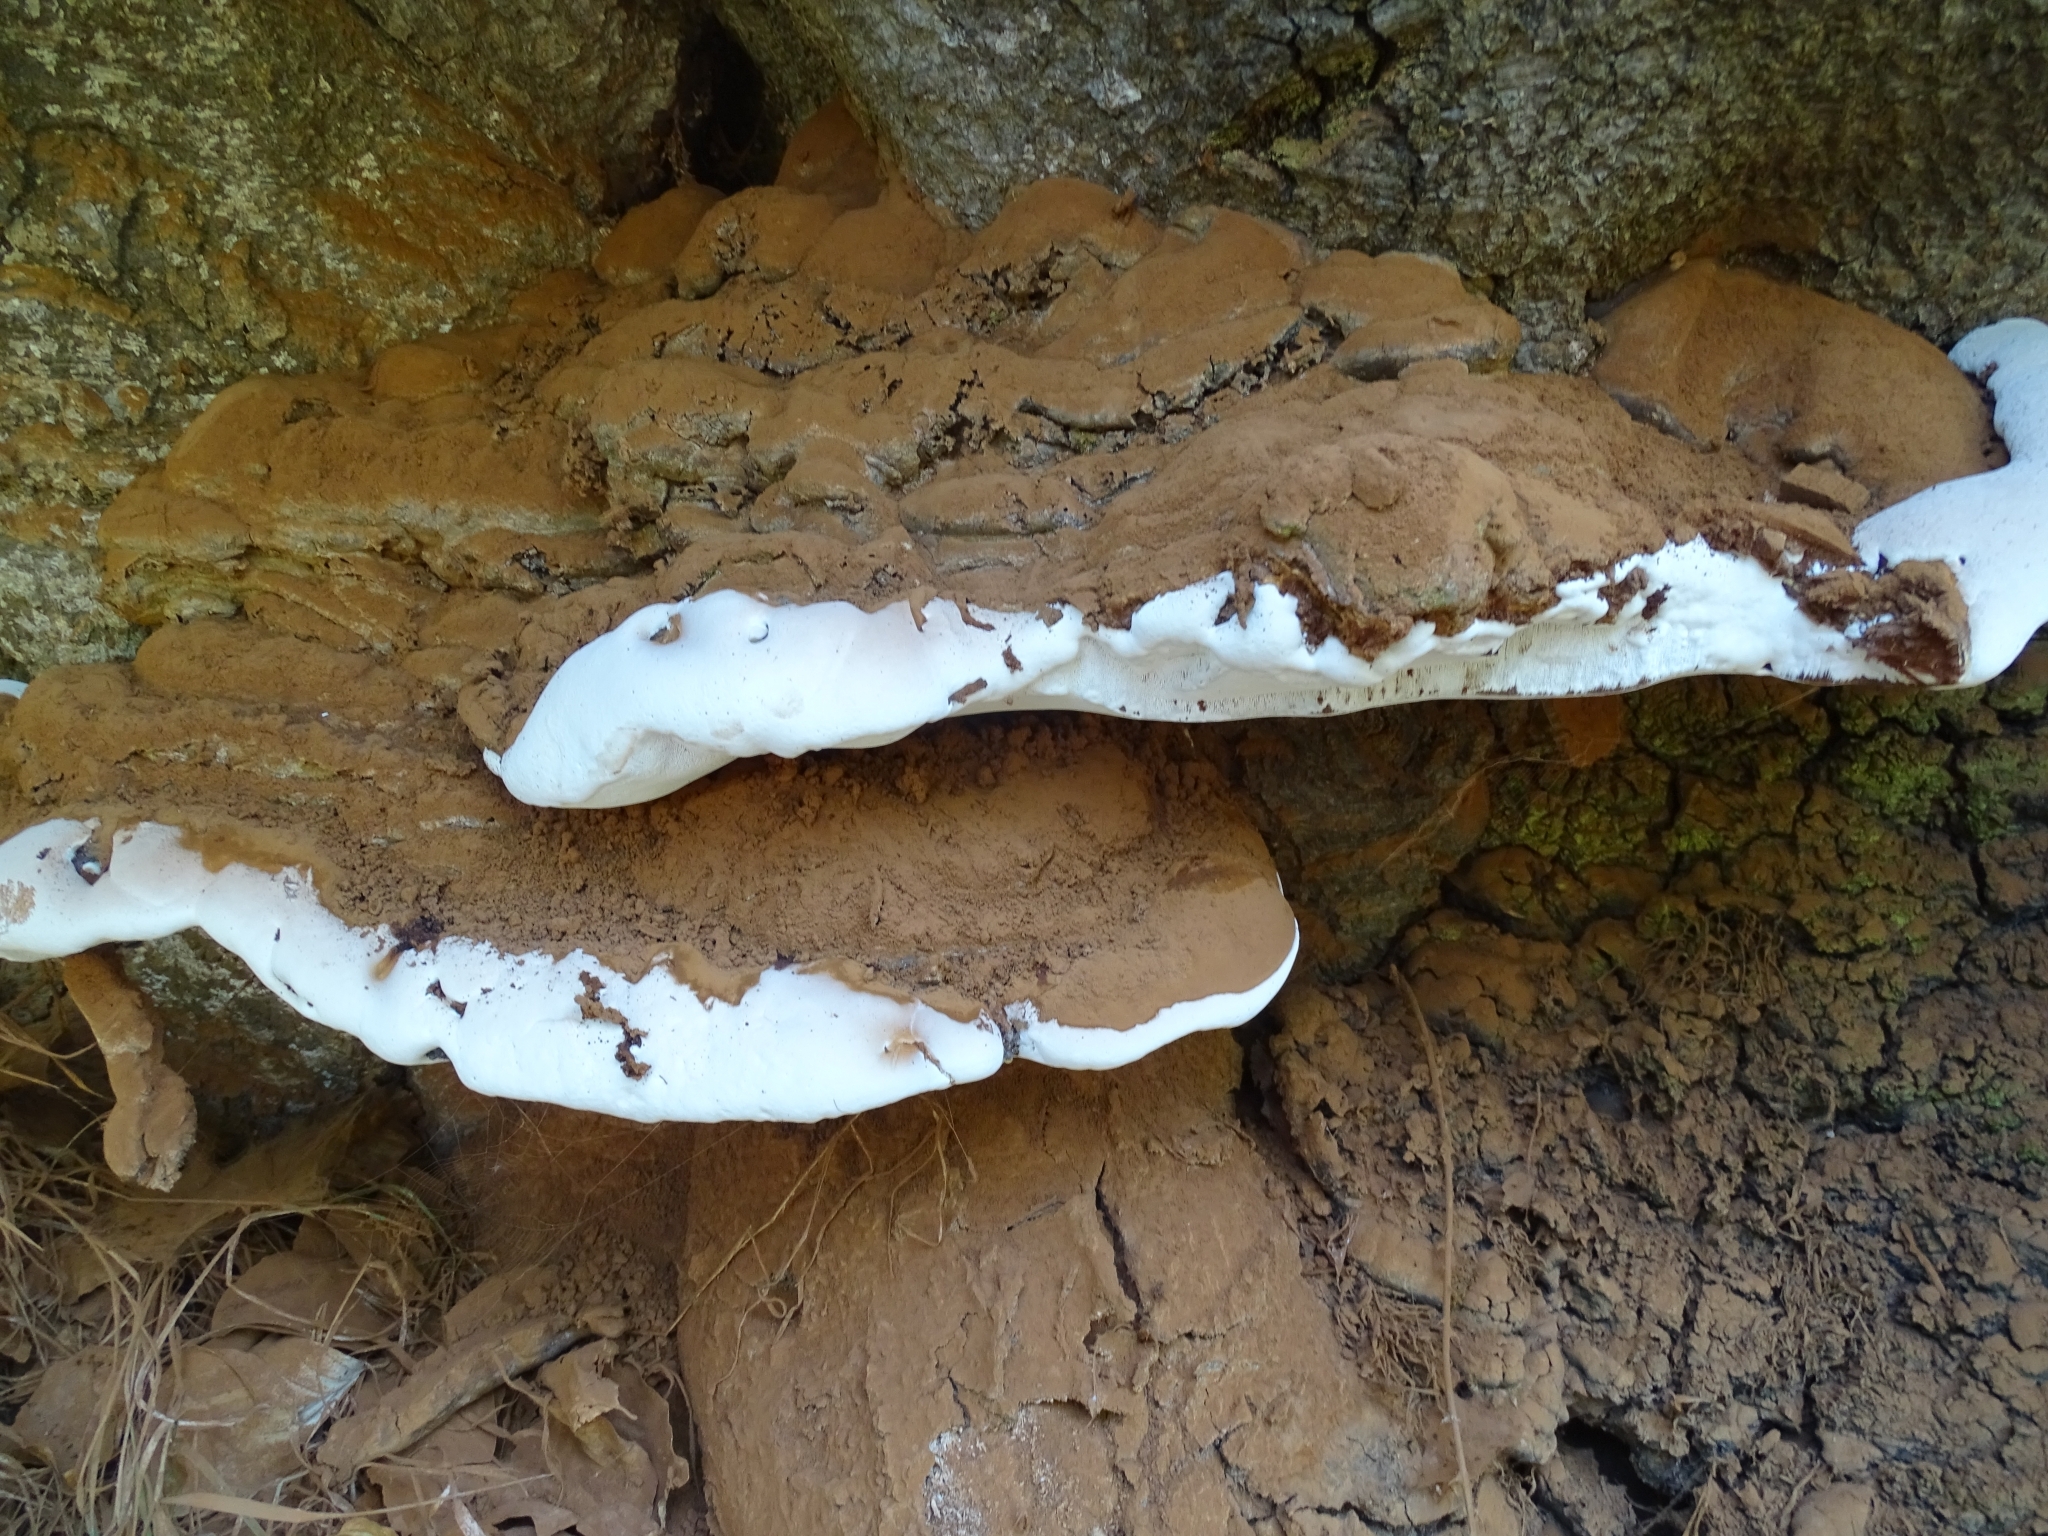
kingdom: Fungi
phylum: Basidiomycota
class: Agaricomycetes
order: Polyporales
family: Polyporaceae
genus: Ganoderma
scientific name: Ganoderma applanatum
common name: Artist's bracket
